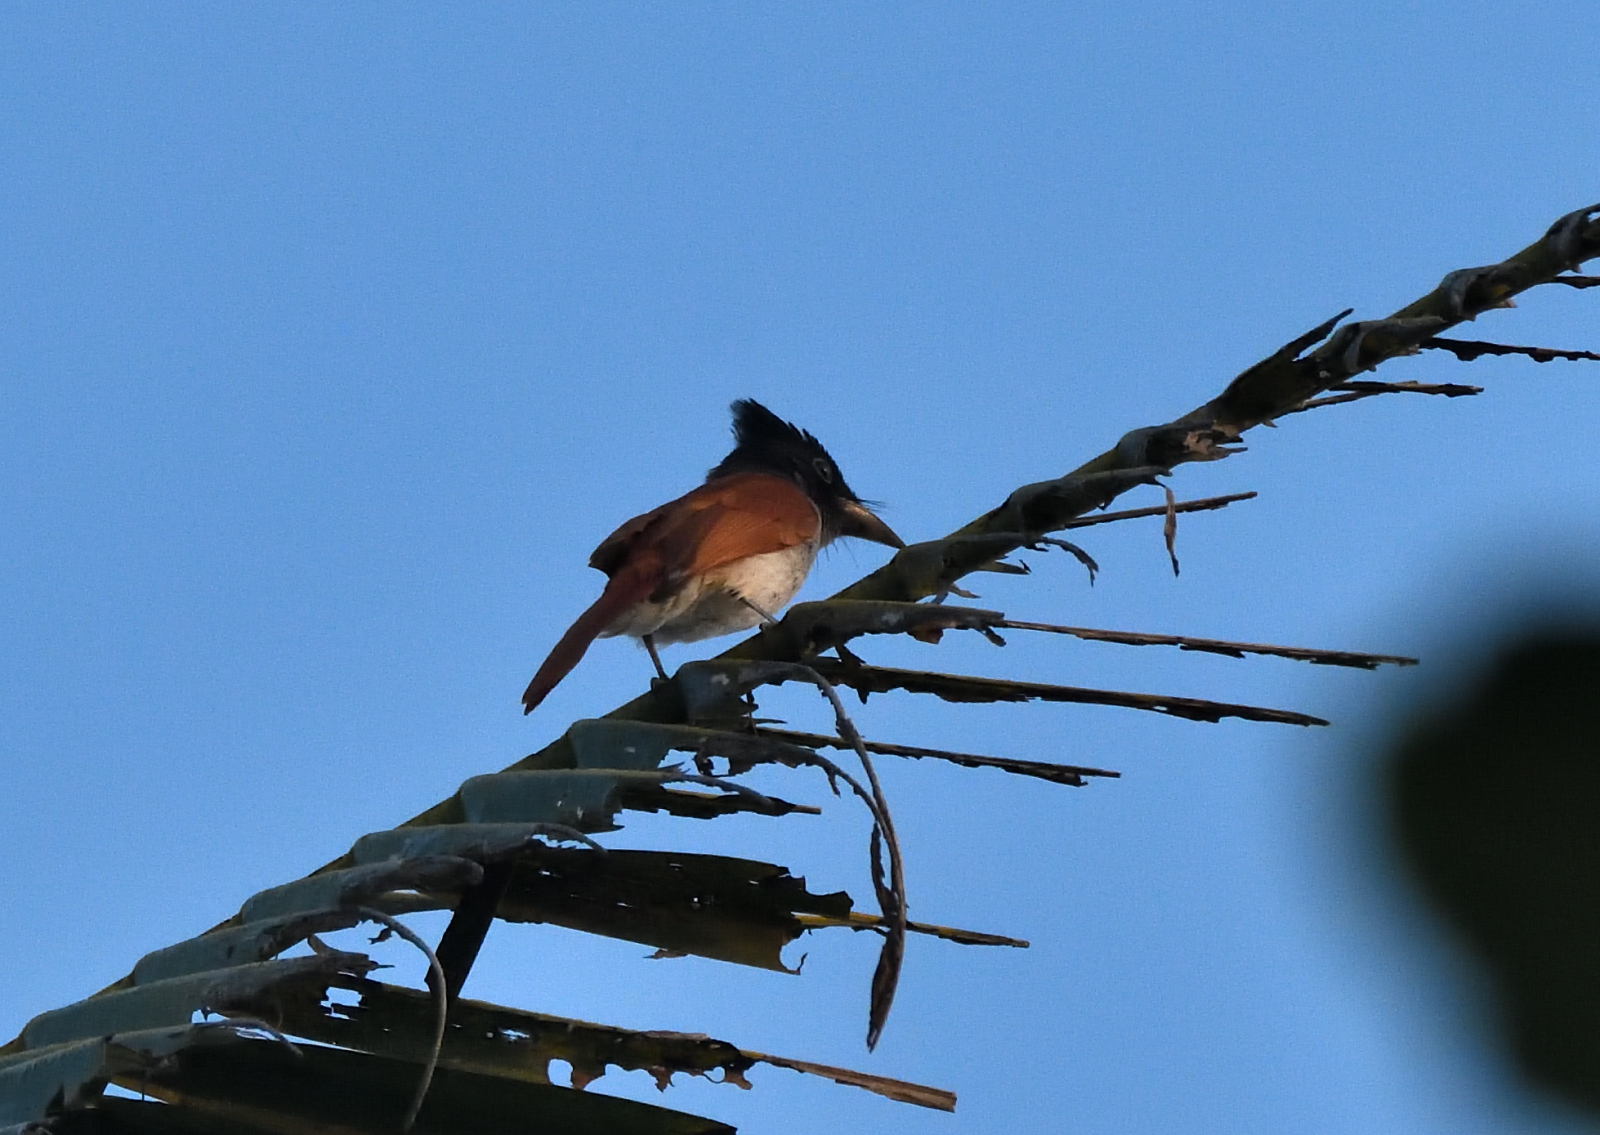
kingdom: Animalia
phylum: Chordata
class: Aves
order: Passeriformes
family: Monarchidae
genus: Terpsiphone
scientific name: Terpsiphone paradisi
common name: Indian paradise flycatcher
